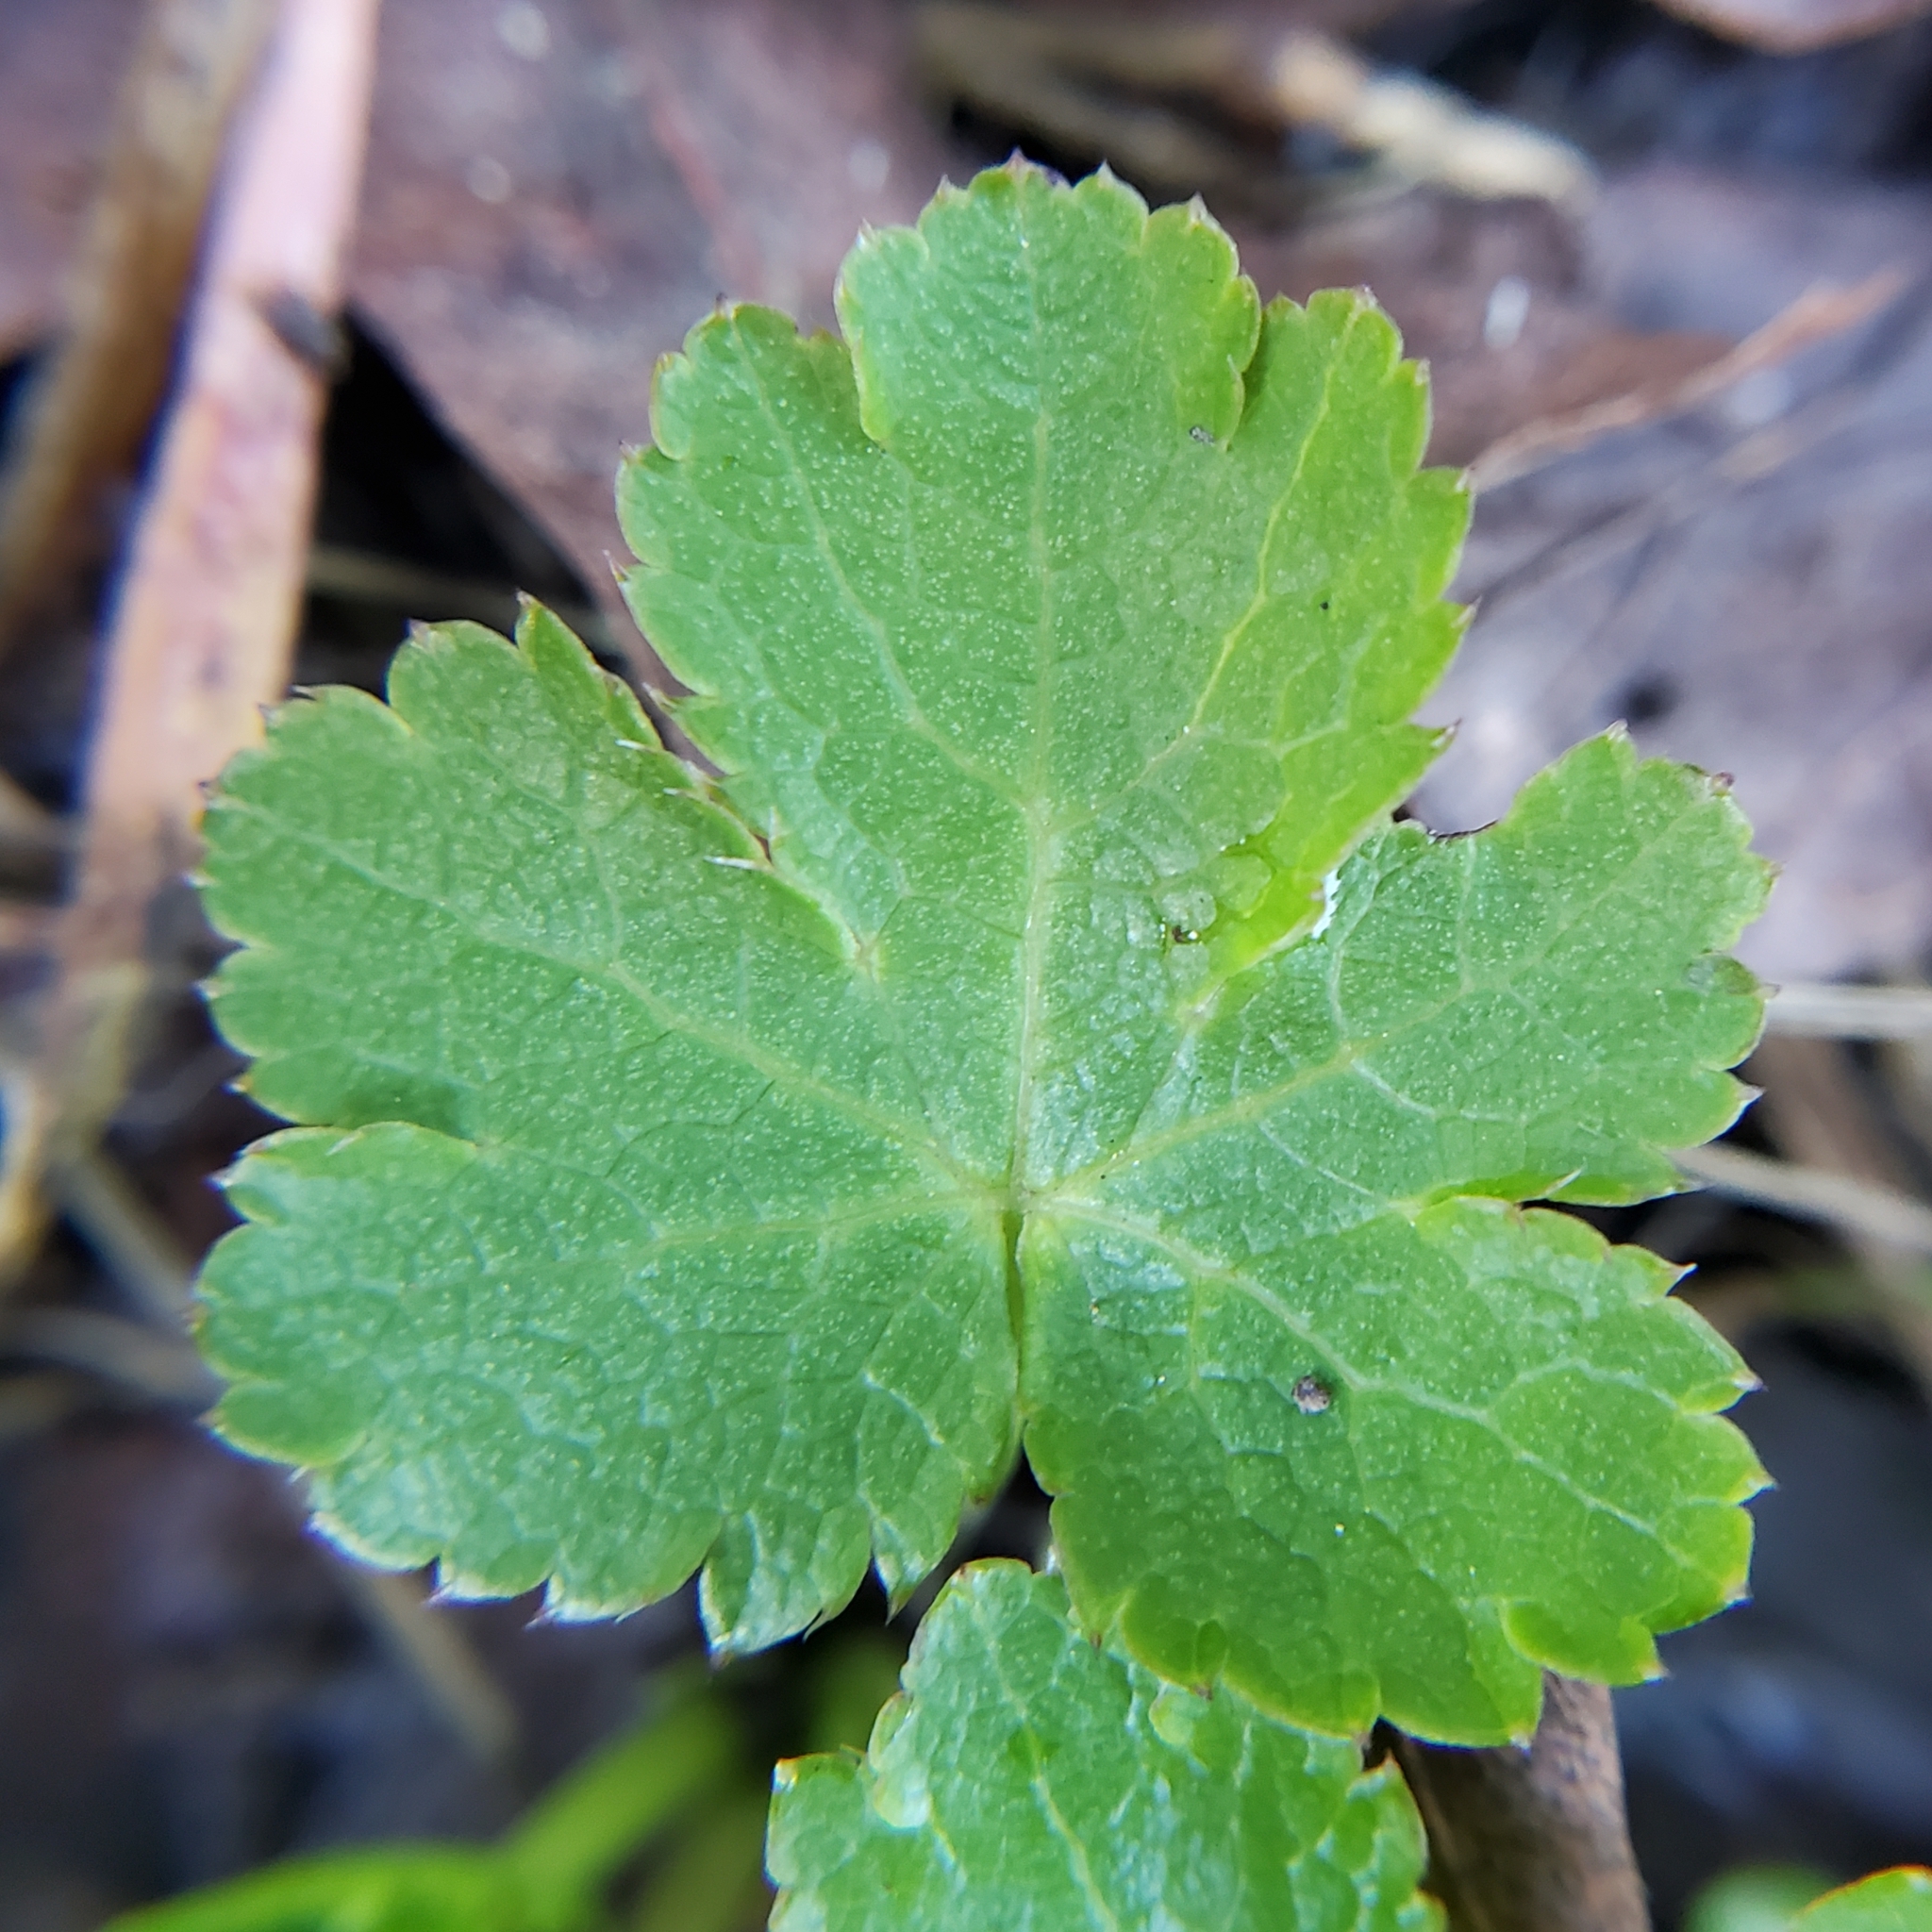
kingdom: Plantae
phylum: Tracheophyta
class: Magnoliopsida
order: Apiales
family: Apiaceae
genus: Sanicula
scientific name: Sanicula crassicaulis
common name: Western snakeroot
